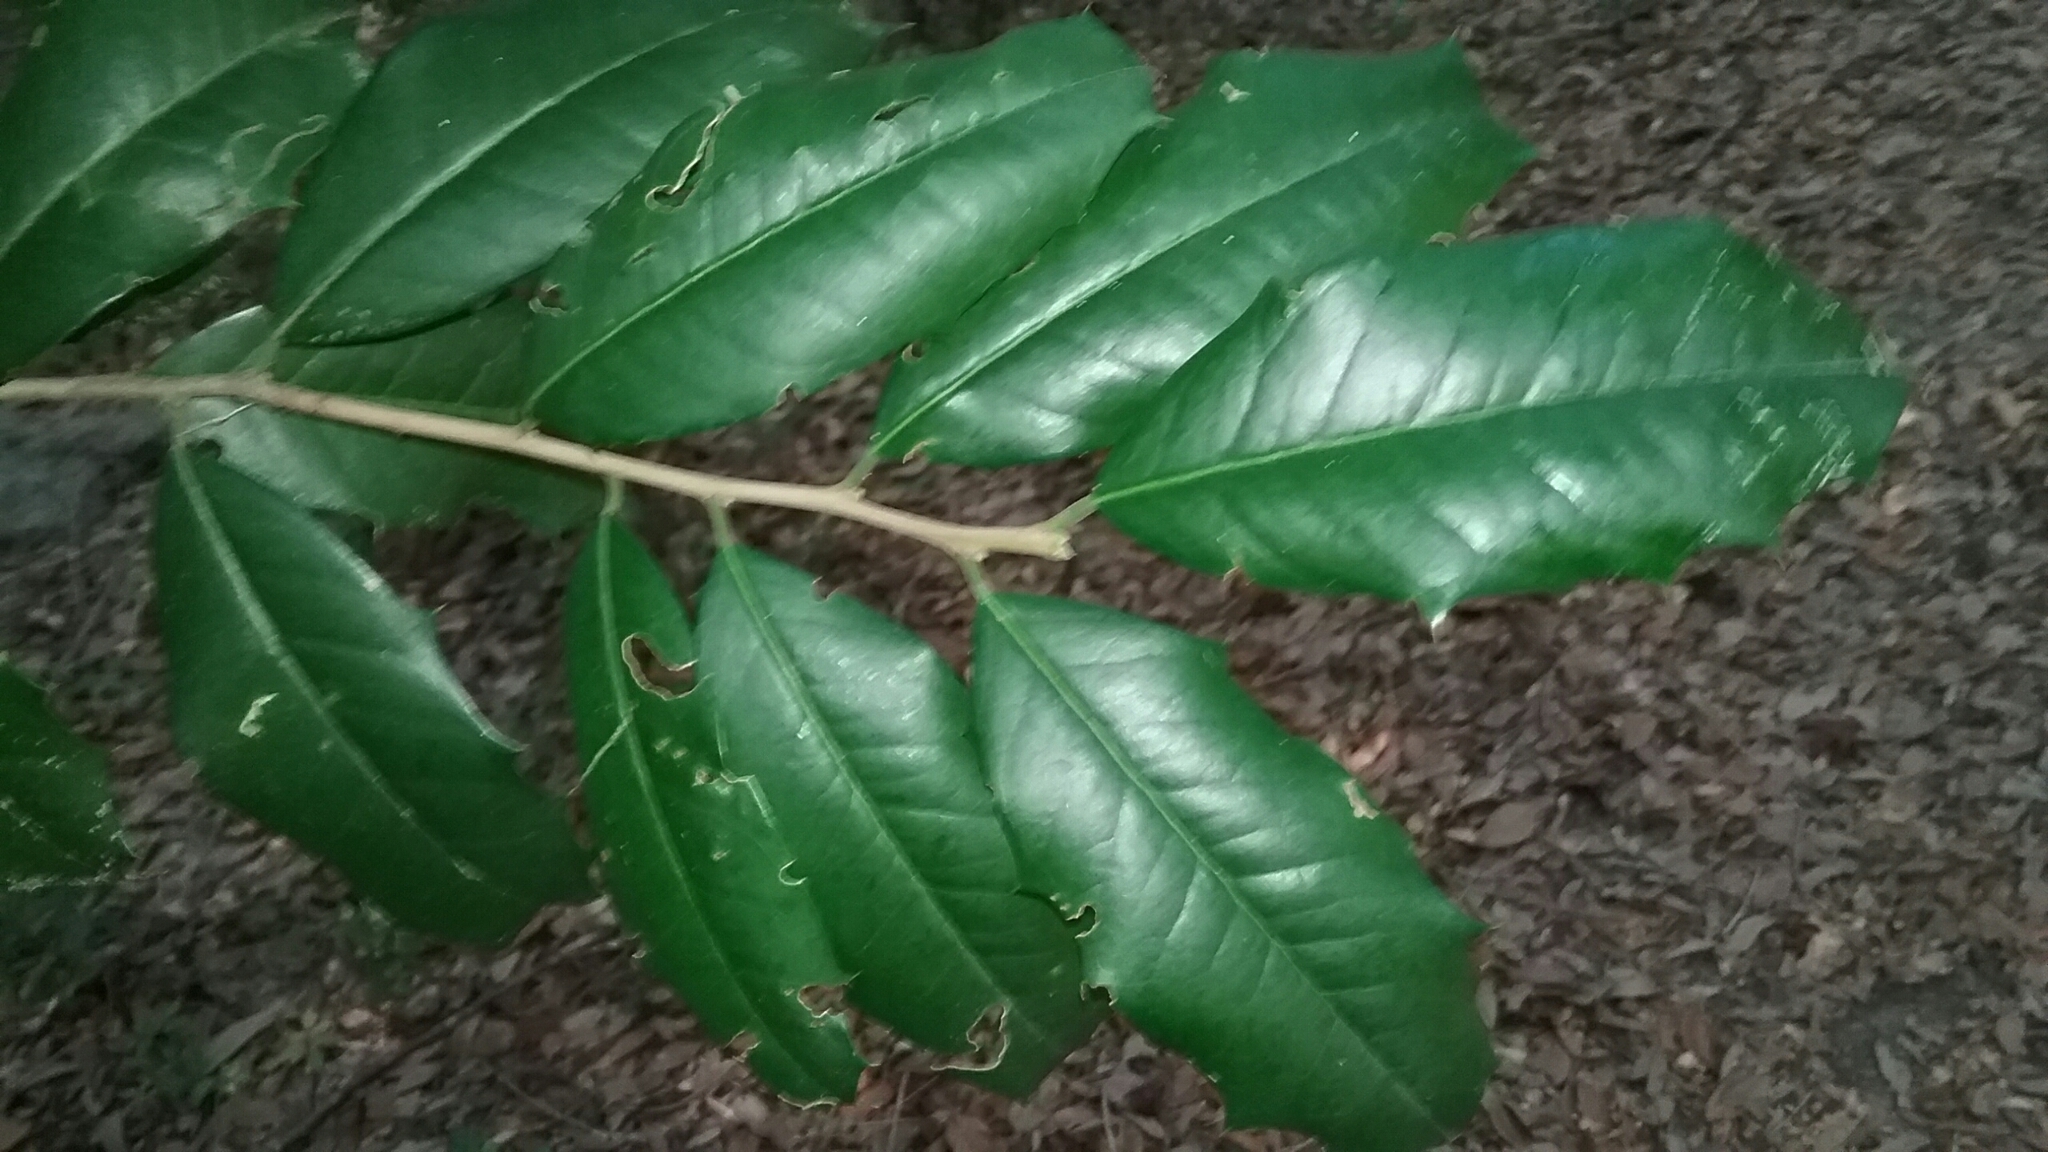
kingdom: Plantae
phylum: Tracheophyta
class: Magnoliopsida
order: Aquifoliales
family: Aquifoliaceae
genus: Ilex
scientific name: Ilex opaca
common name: American holly
